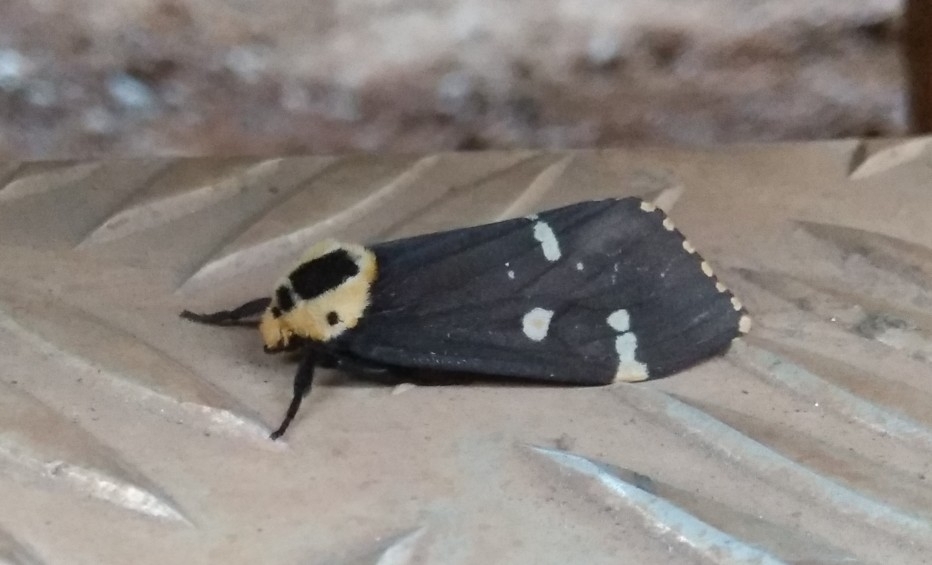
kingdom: Animalia
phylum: Arthropoda
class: Insecta
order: Lepidoptera
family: Erebidae
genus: Lymantria
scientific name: Lymantria semicincta
